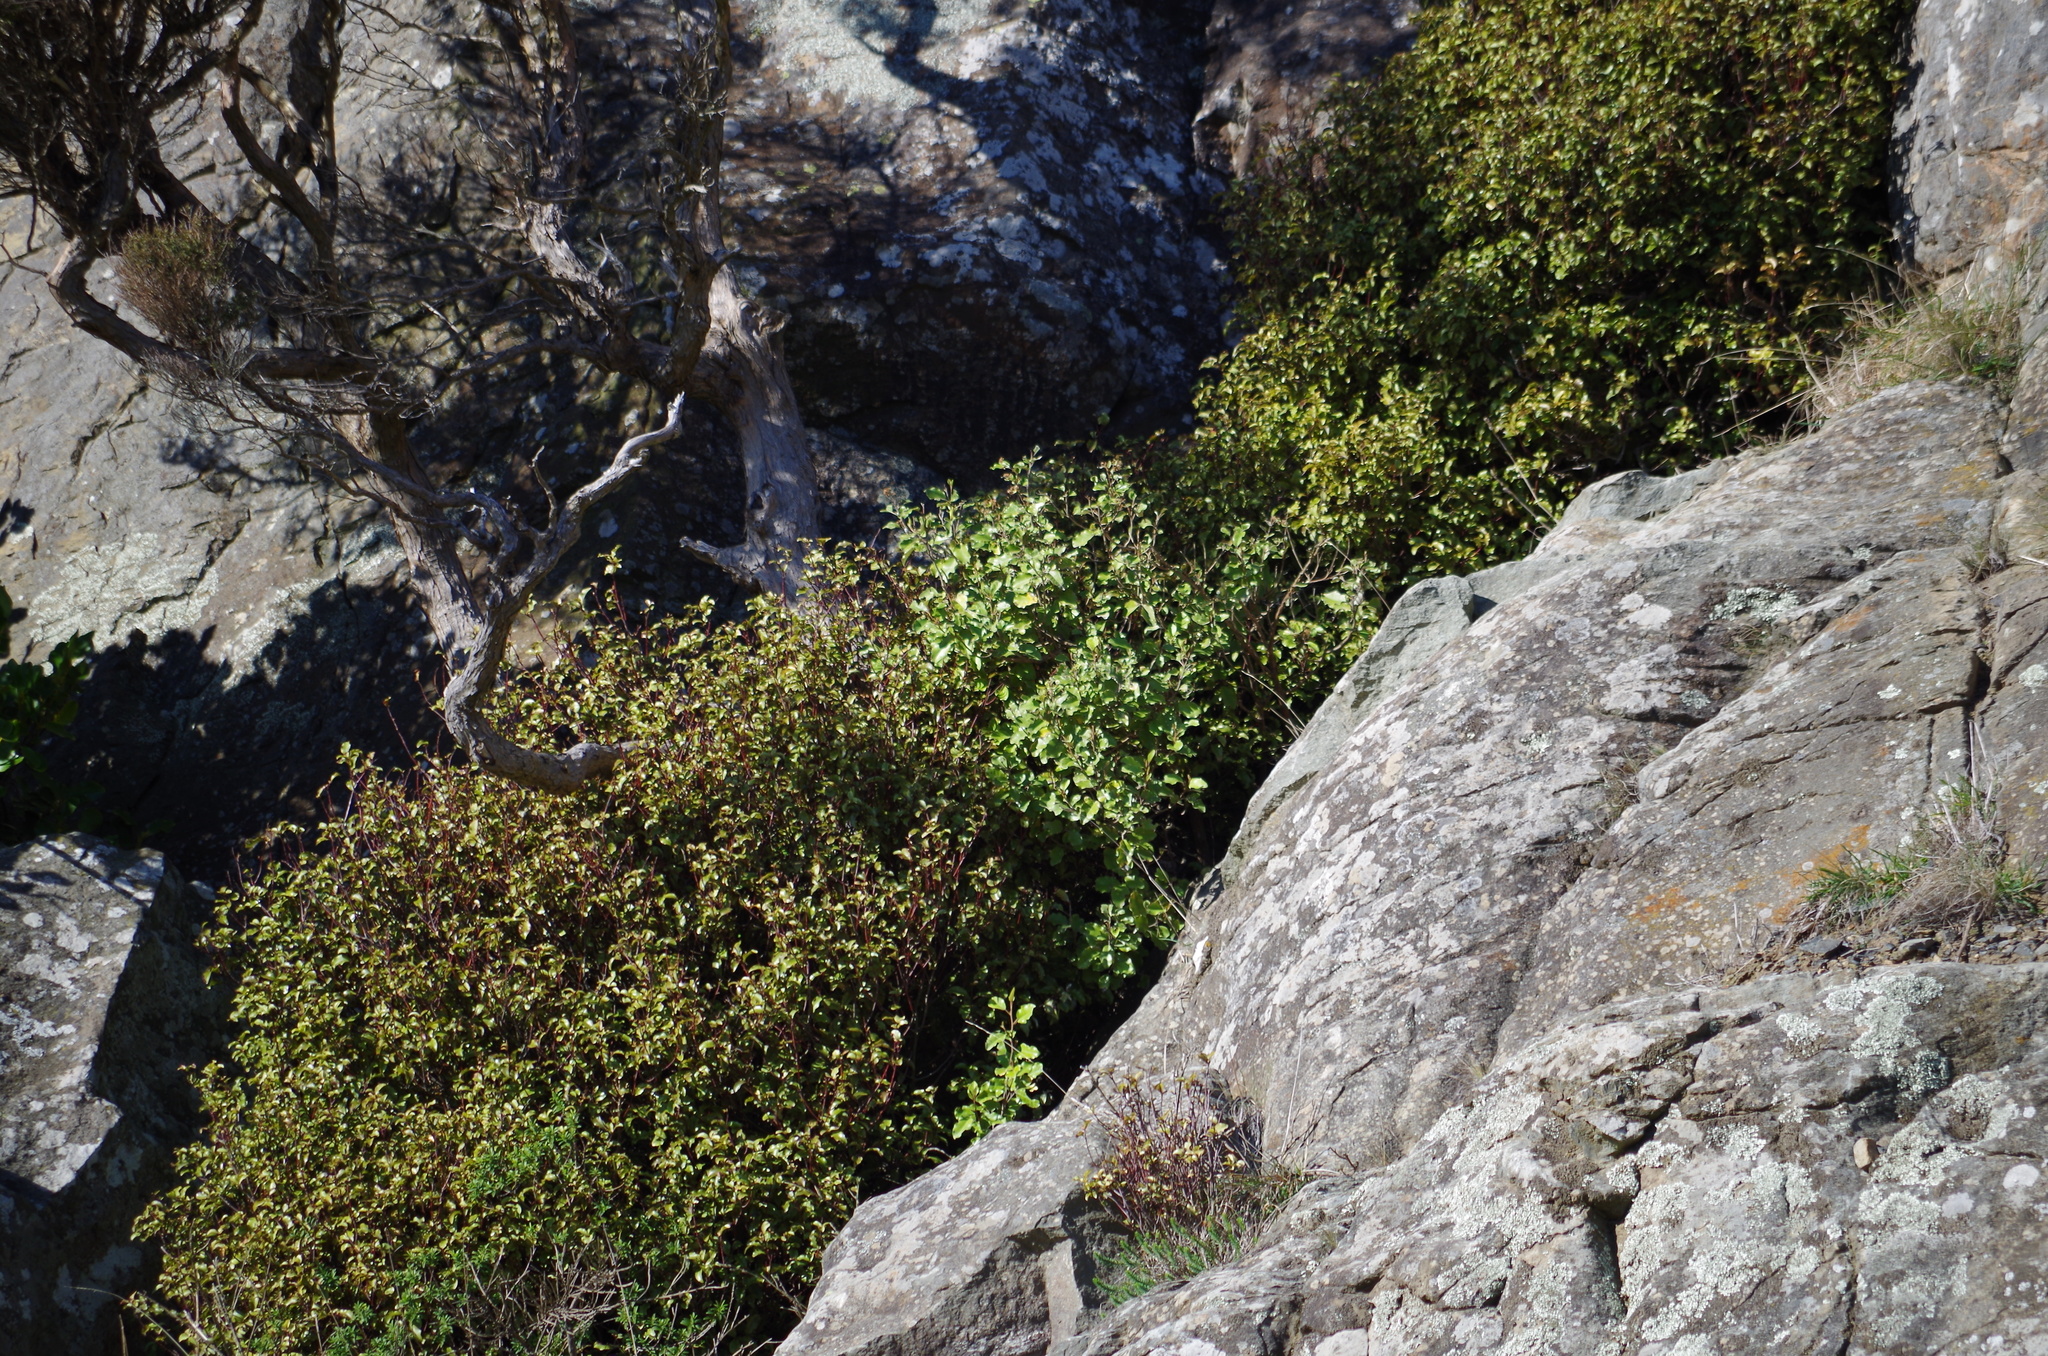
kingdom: Plantae
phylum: Tracheophyta
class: Magnoliopsida
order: Asterales
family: Asteraceae
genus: Olearia
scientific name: Olearia paniculata
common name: Akiraho
